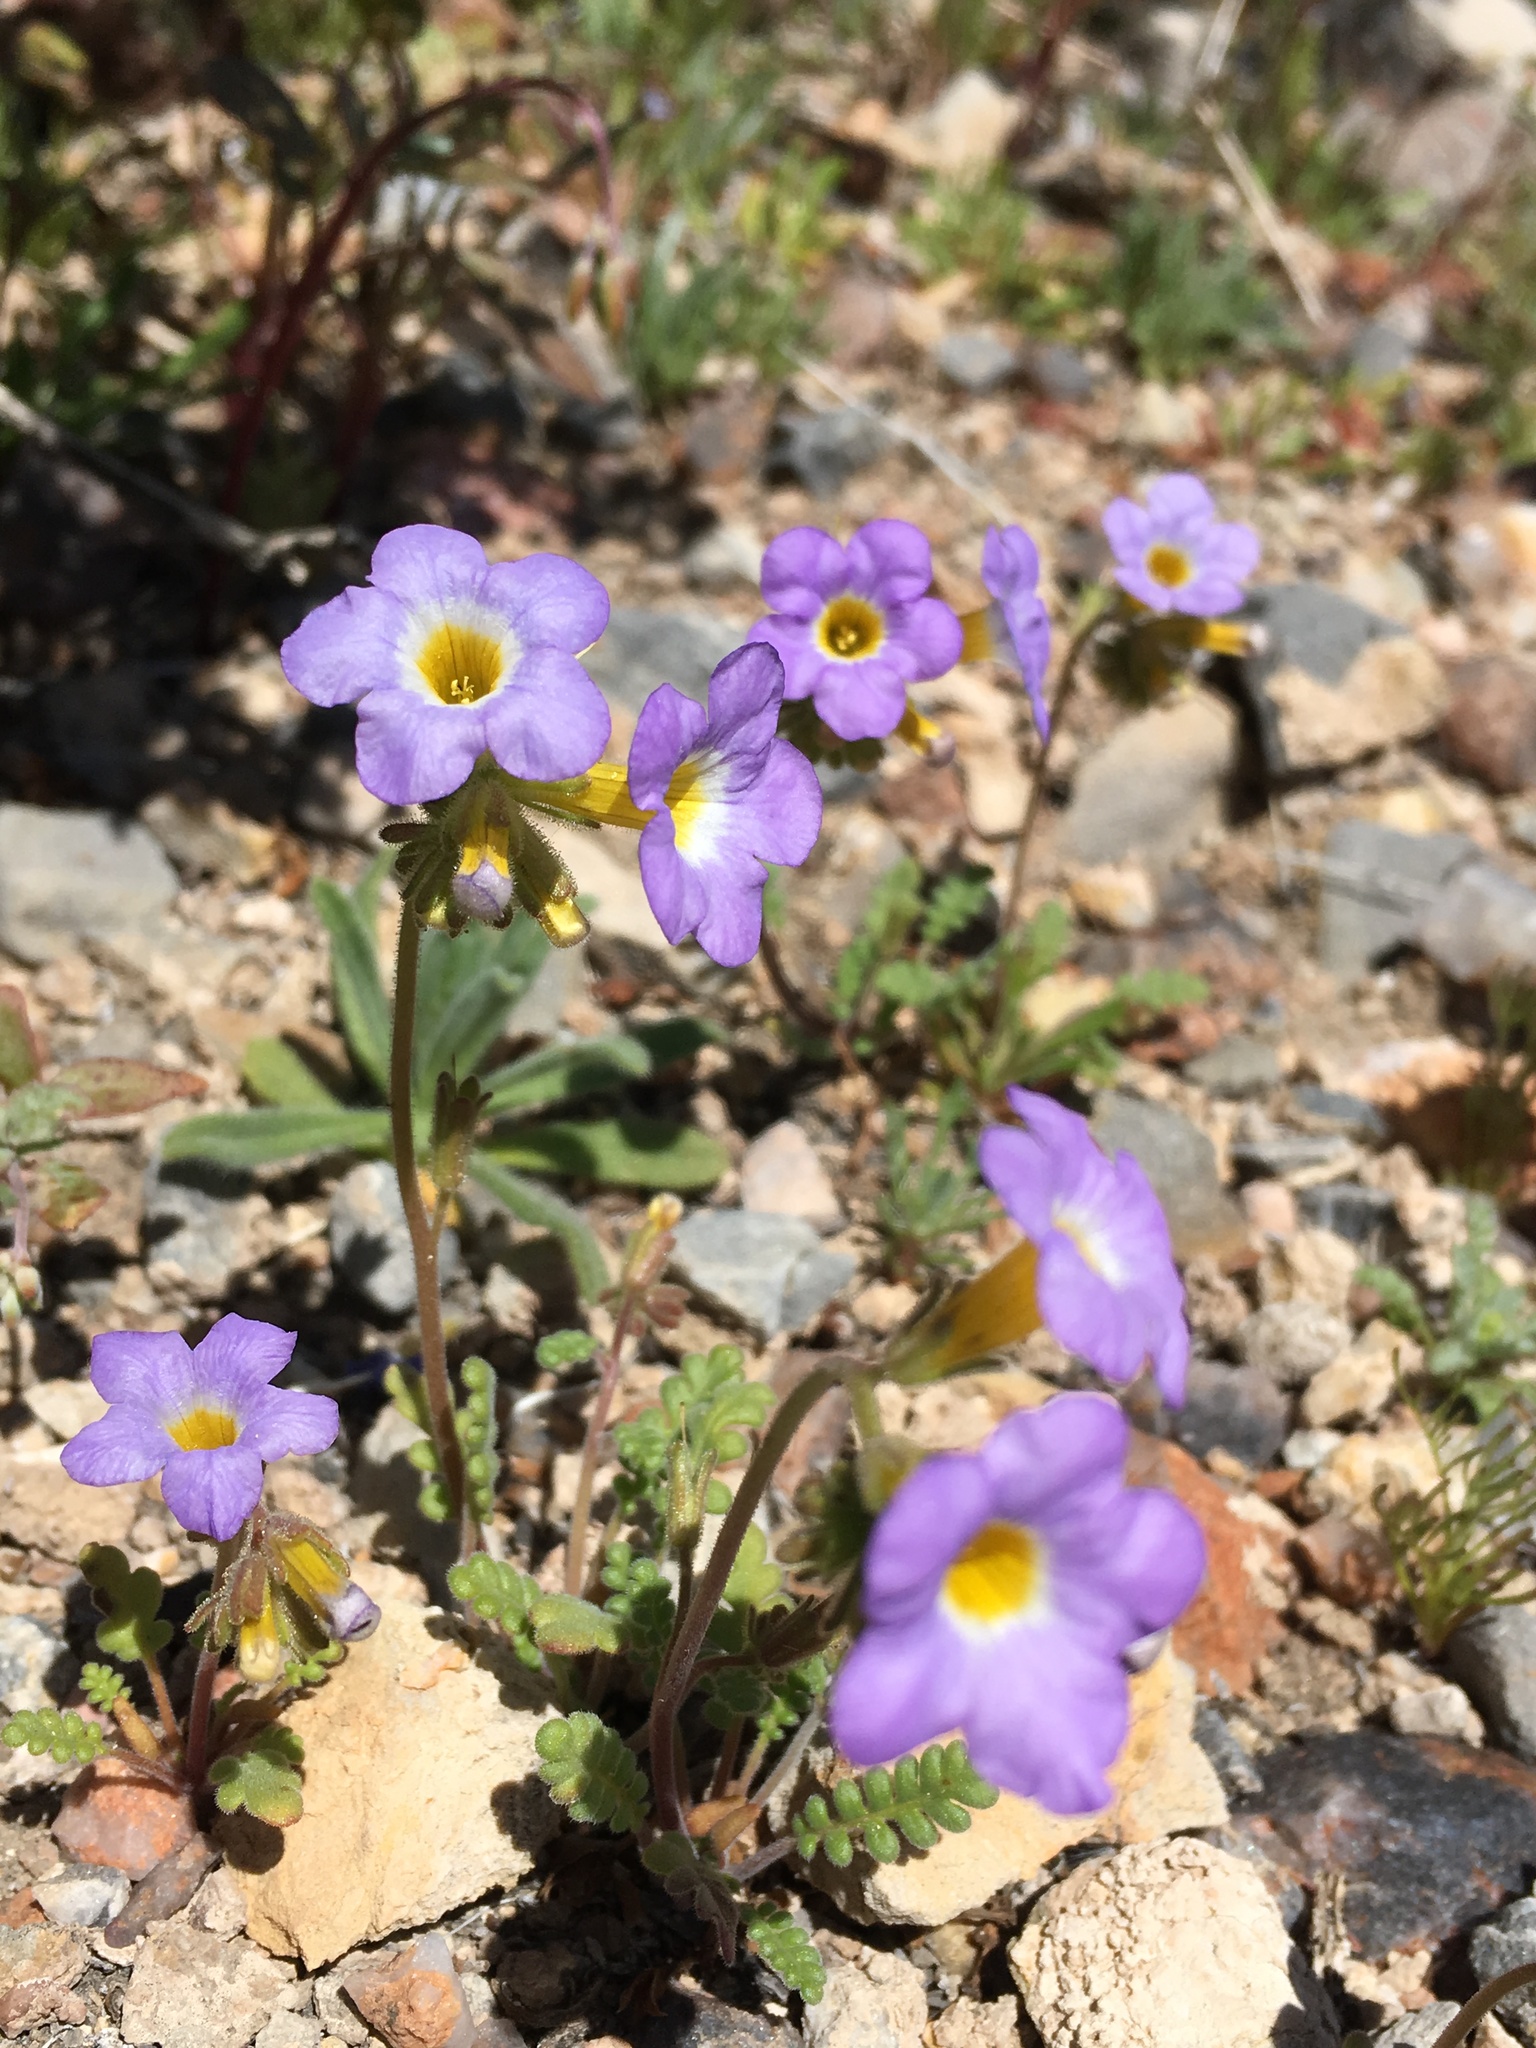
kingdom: Plantae
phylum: Tracheophyta
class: Magnoliopsida
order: Boraginales
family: Hydrophyllaceae
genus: Phacelia
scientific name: Phacelia fremontii
